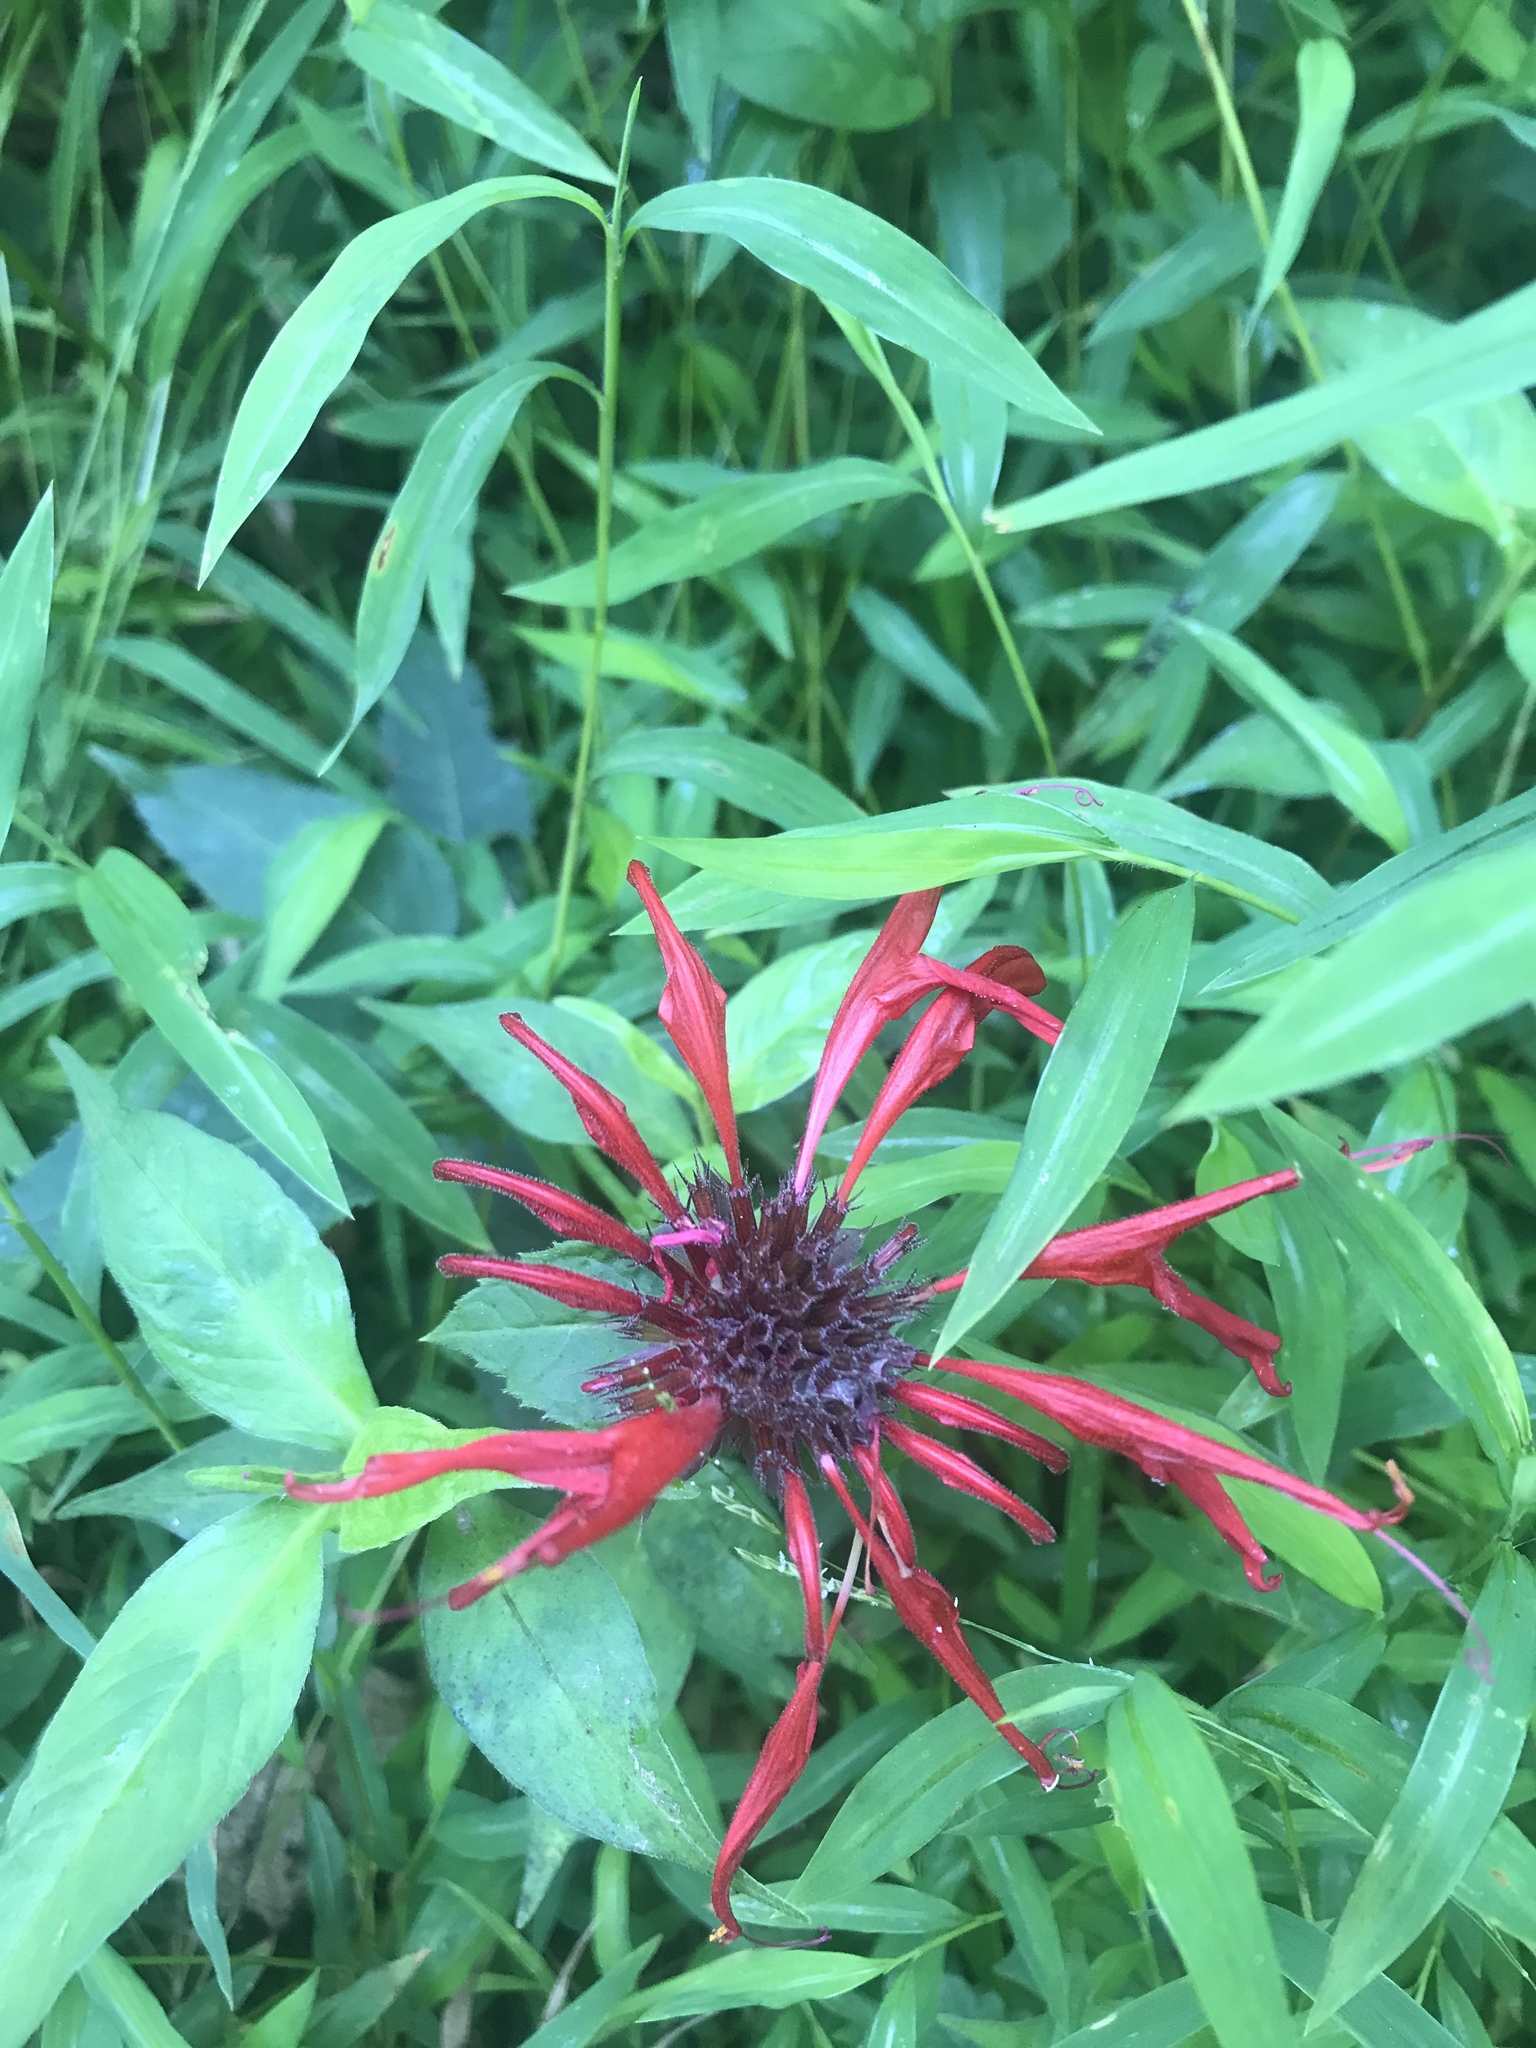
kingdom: Plantae
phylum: Tracheophyta
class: Magnoliopsida
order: Lamiales
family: Lamiaceae
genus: Monarda
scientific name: Monarda didyma
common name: Beebalm
